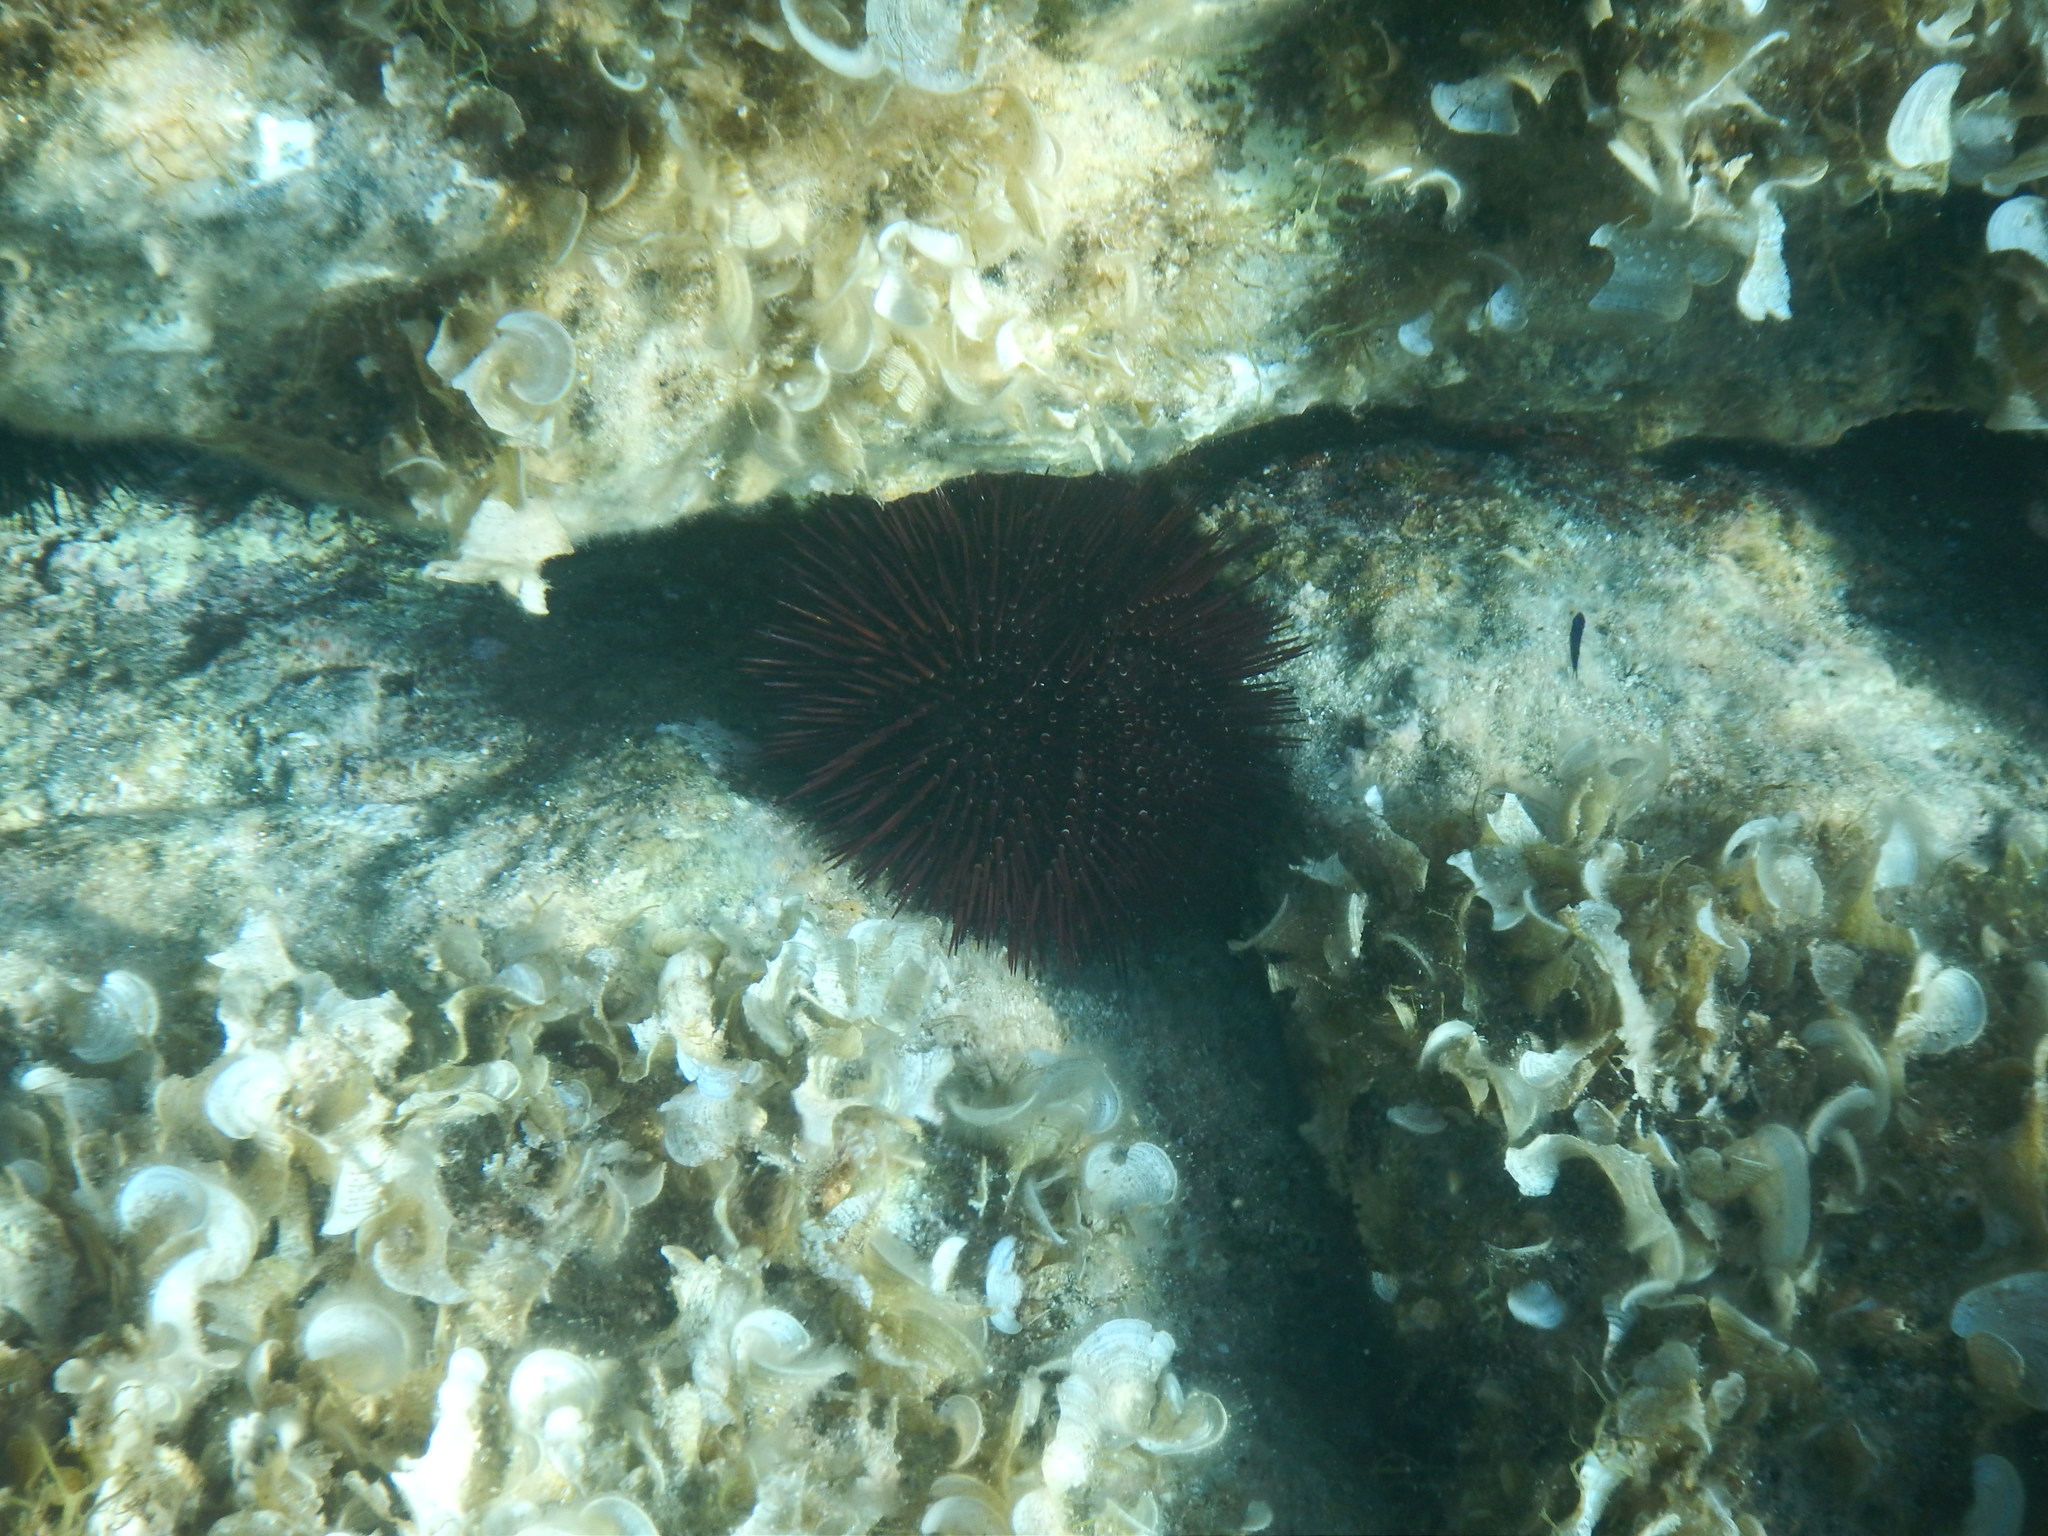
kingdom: Animalia
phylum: Echinodermata
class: Echinoidea
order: Camarodonta
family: Parechinidae
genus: Paracentrotus
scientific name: Paracentrotus lividus
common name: Purple sea urchin
